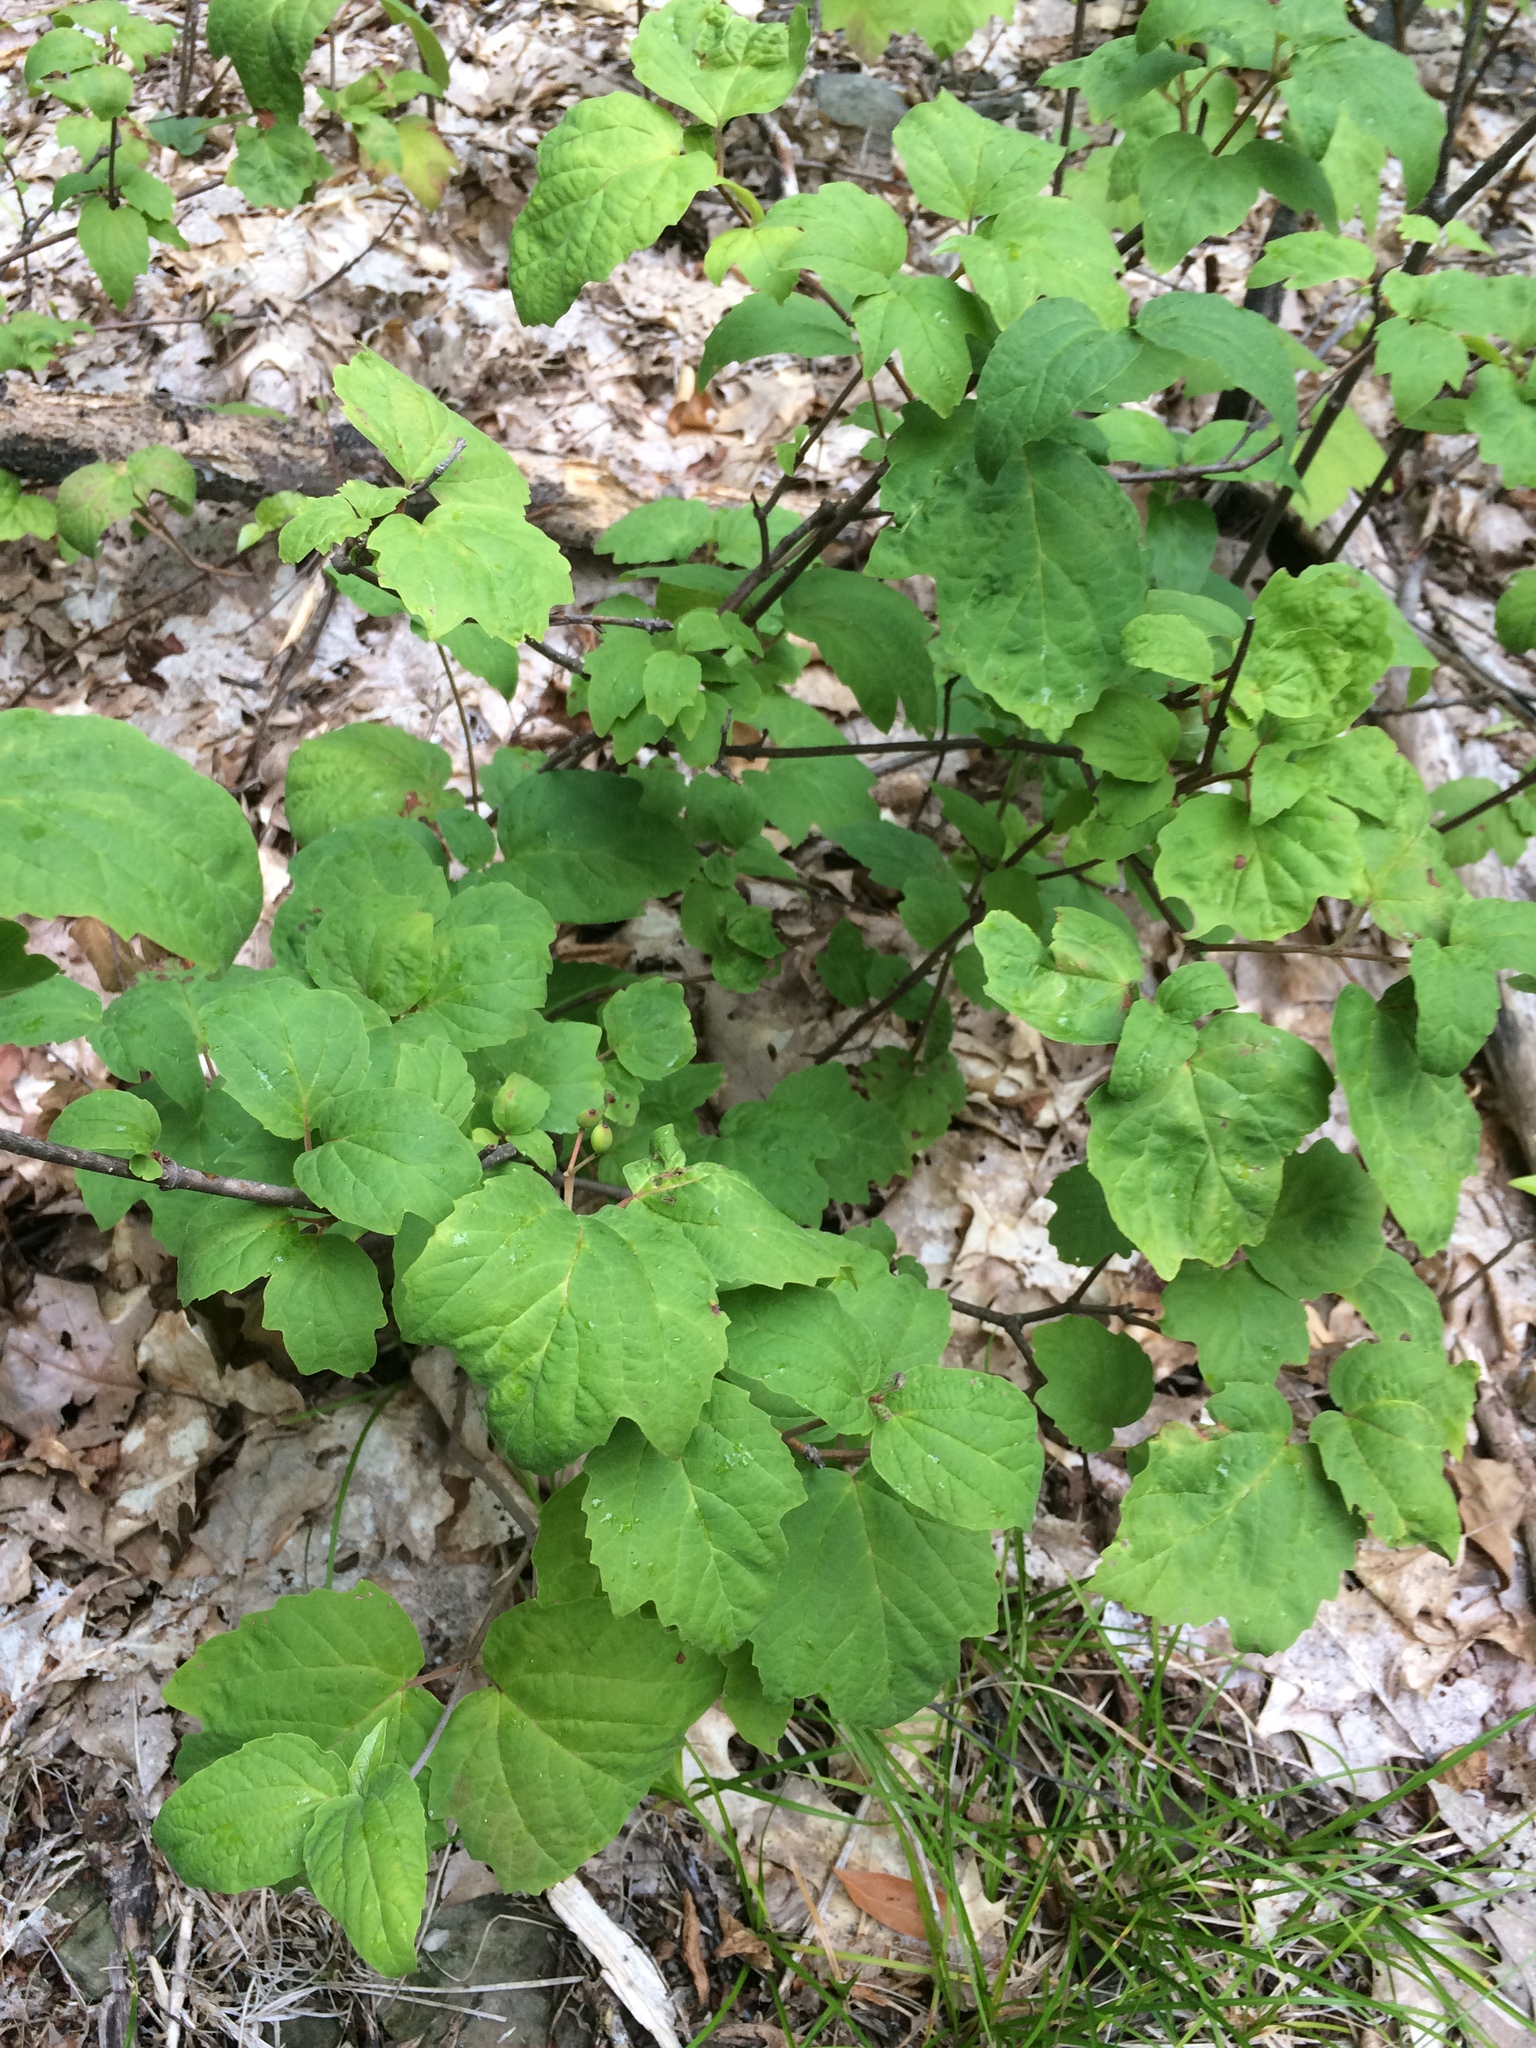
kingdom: Plantae
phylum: Tracheophyta
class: Magnoliopsida
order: Dipsacales
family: Viburnaceae
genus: Viburnum
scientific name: Viburnum acerifolium
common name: Dockmackie
